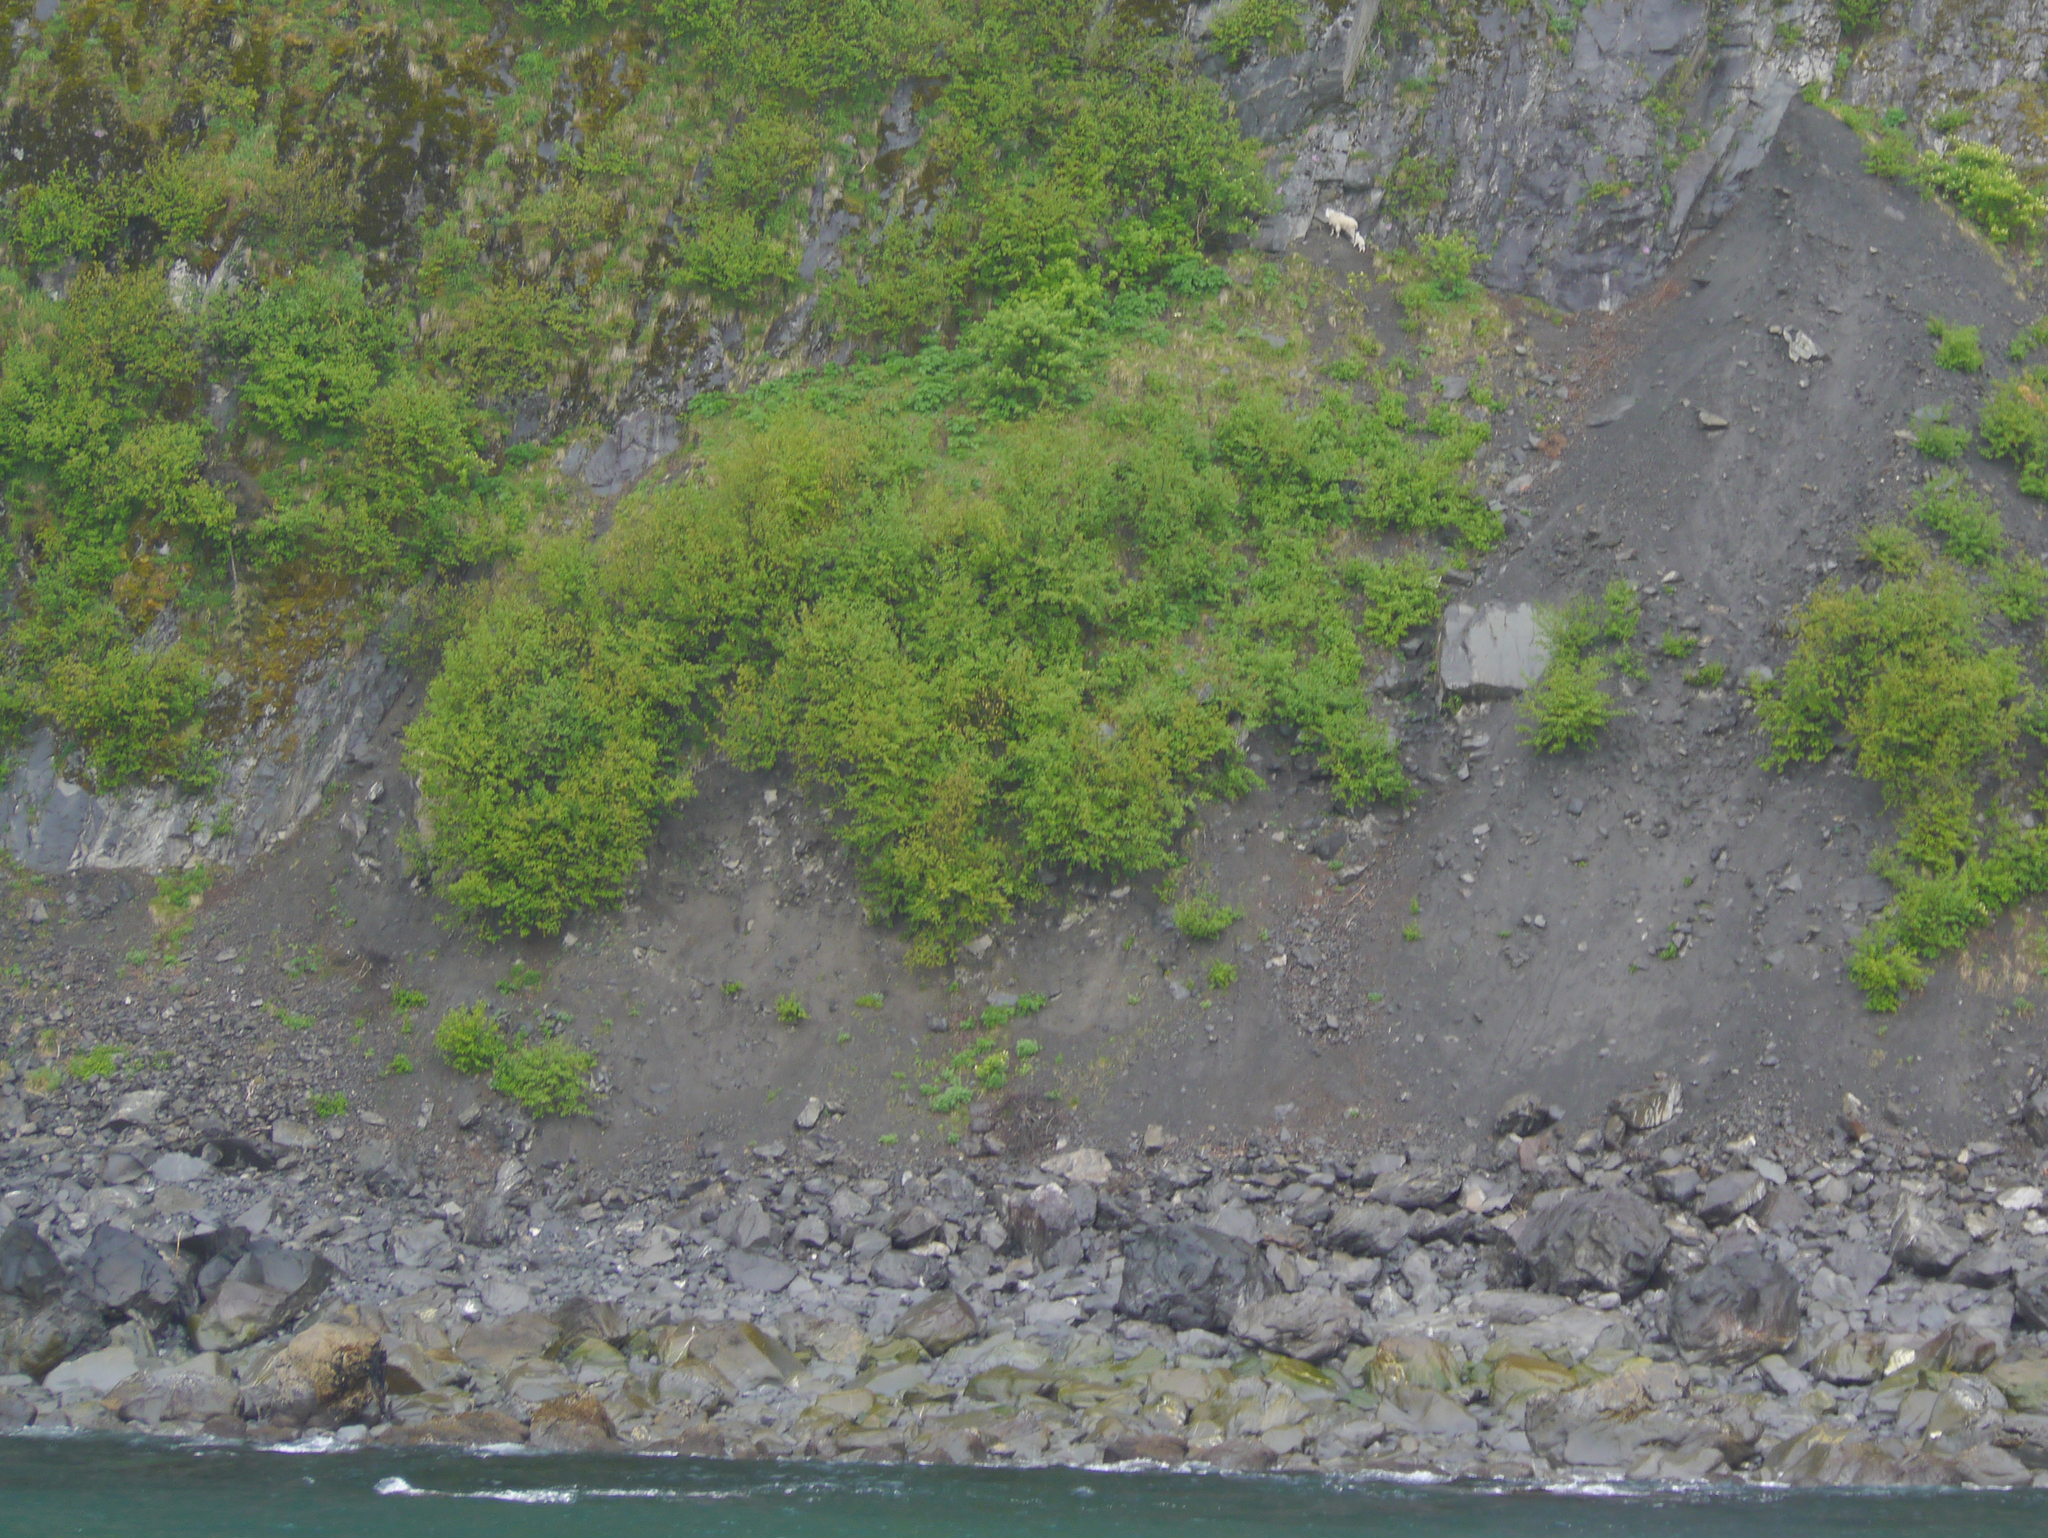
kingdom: Animalia
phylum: Chordata
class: Mammalia
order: Artiodactyla
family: Bovidae
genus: Oreamnos
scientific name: Oreamnos americanus
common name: Mountain goat
